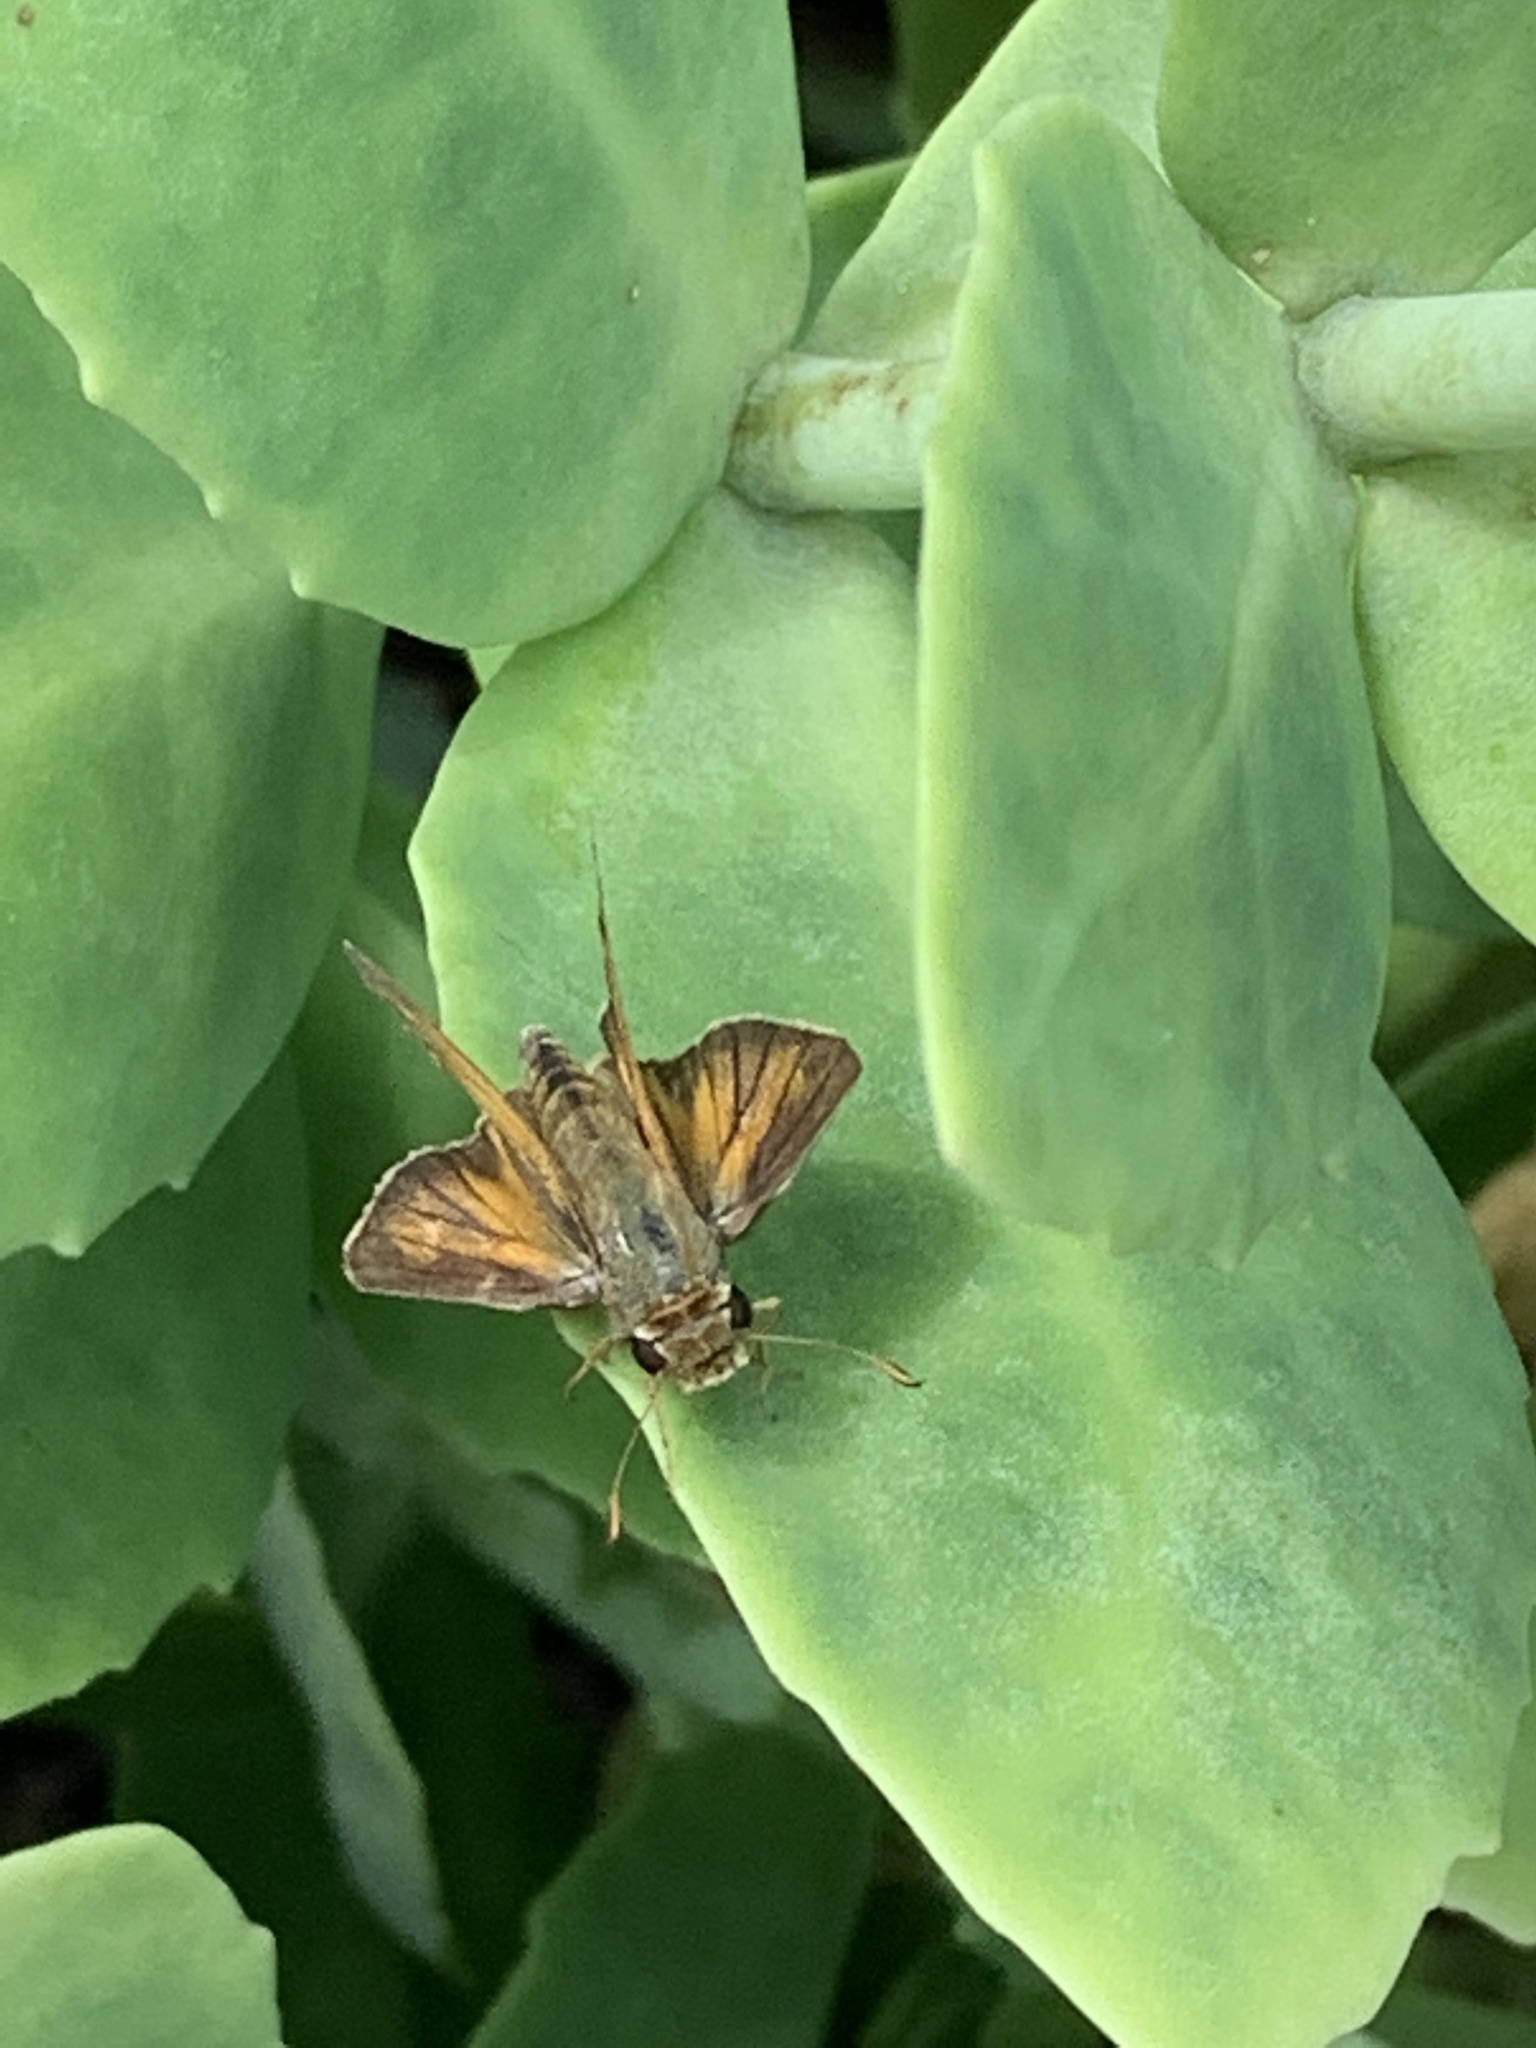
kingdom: Animalia
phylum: Arthropoda
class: Insecta
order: Lepidoptera
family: Hesperiidae
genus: Atrytone
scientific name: Atrytone delaware
